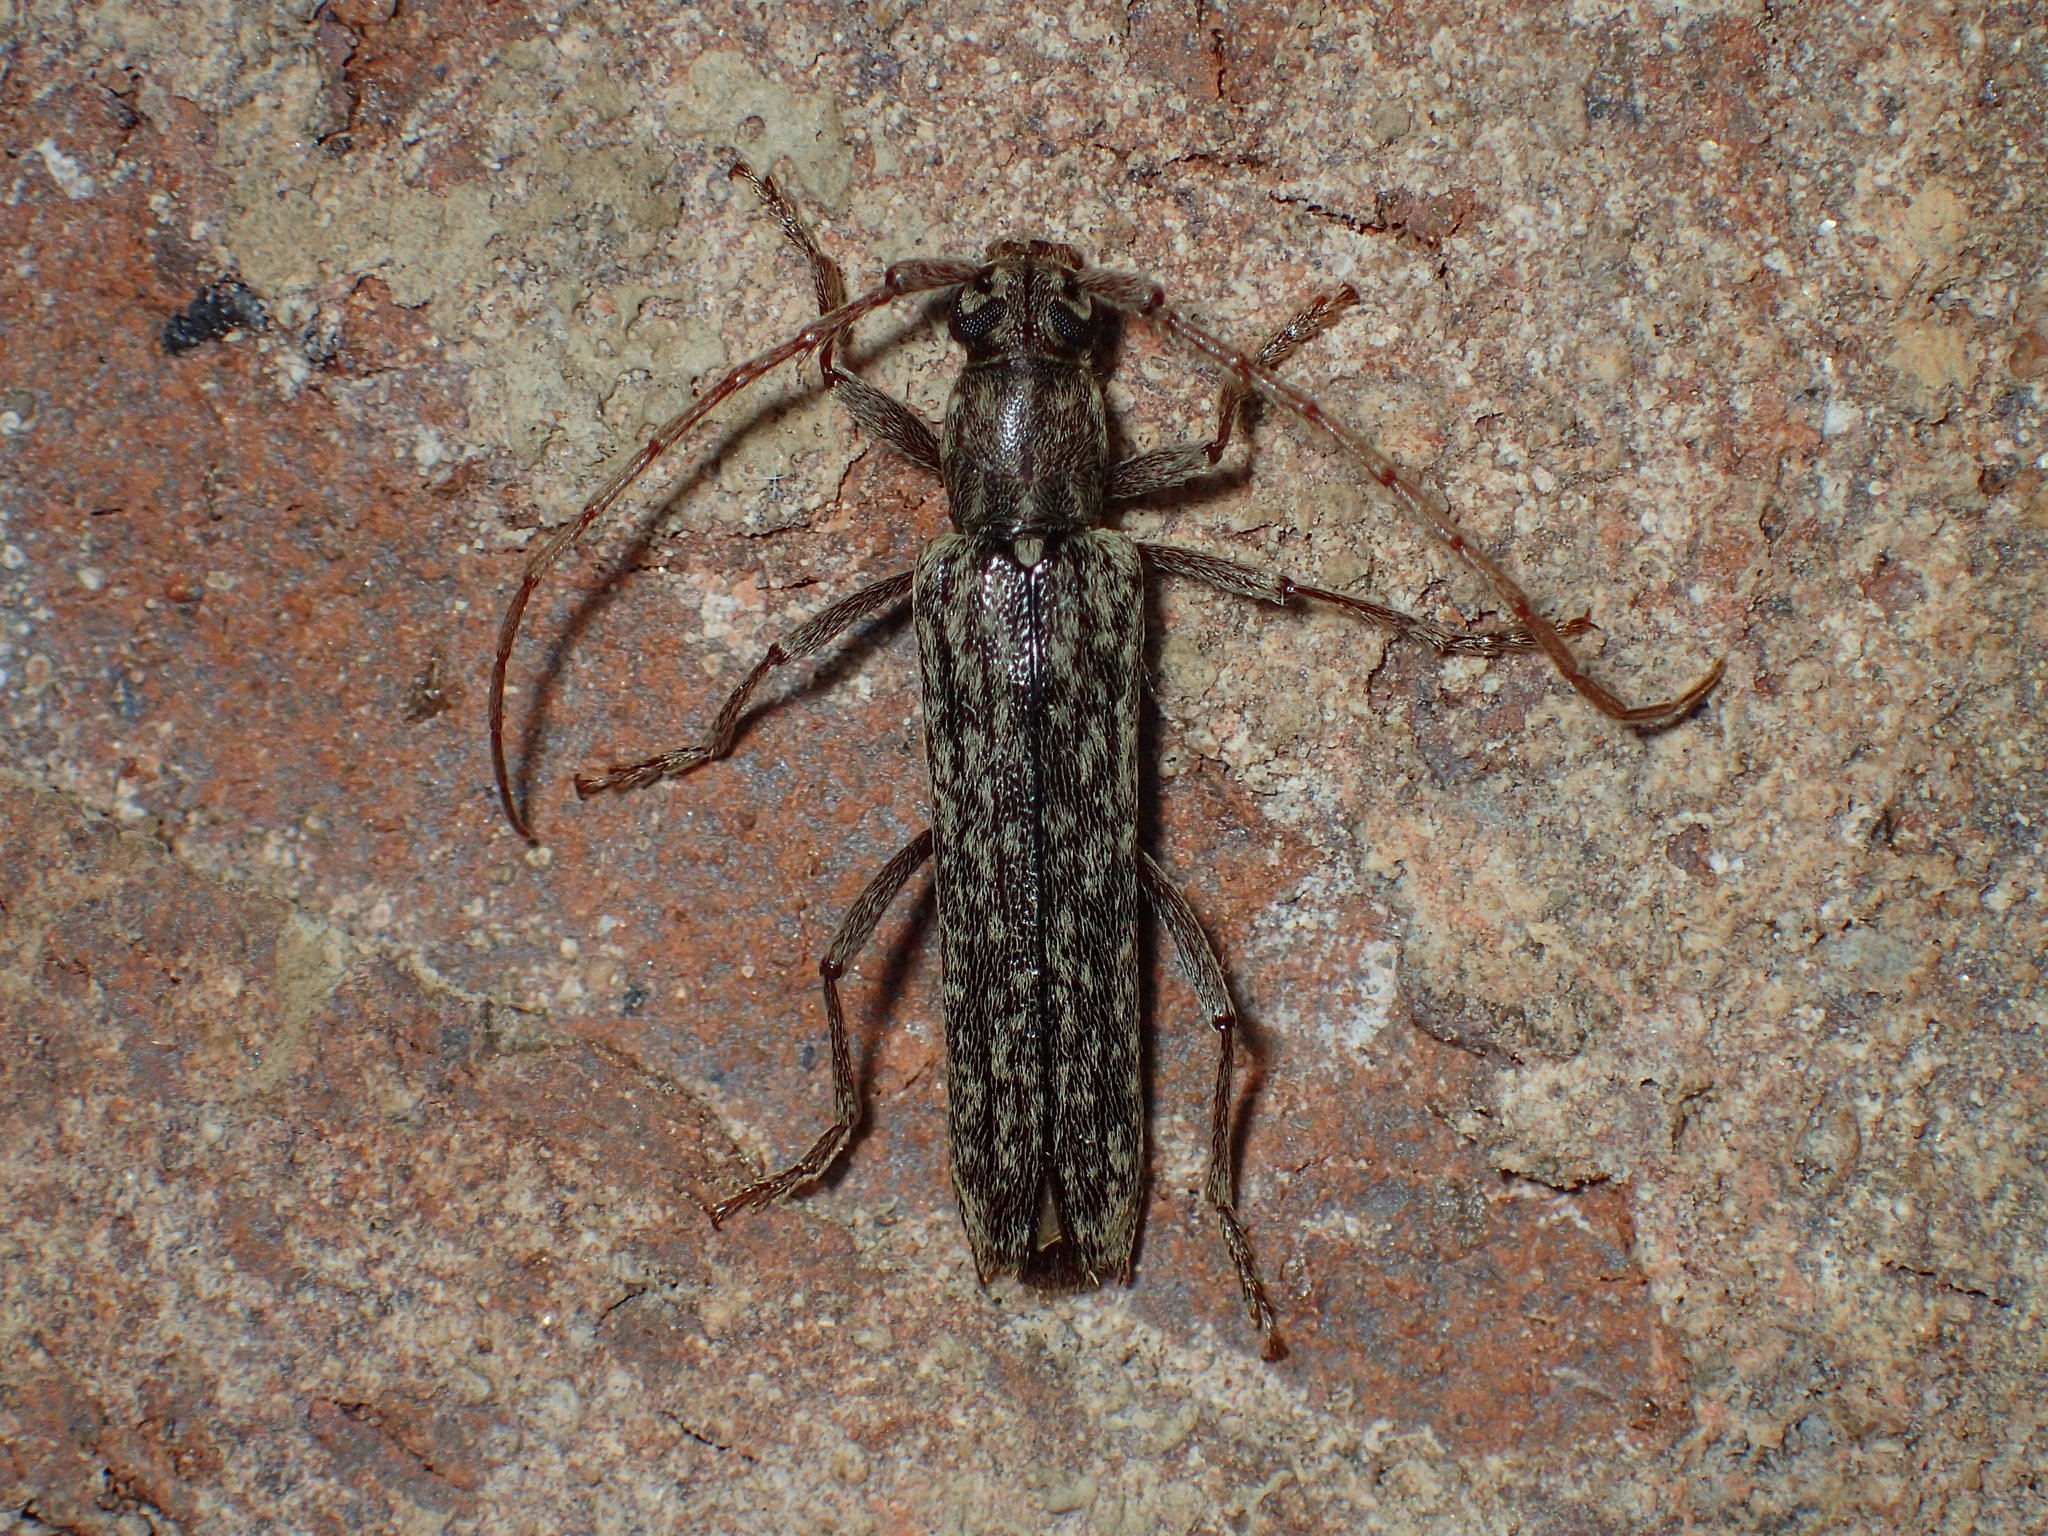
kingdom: Animalia
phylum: Arthropoda
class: Insecta
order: Coleoptera
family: Cerambycidae
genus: Anelaphus
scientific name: Anelaphus villosus
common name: Twig pruner
